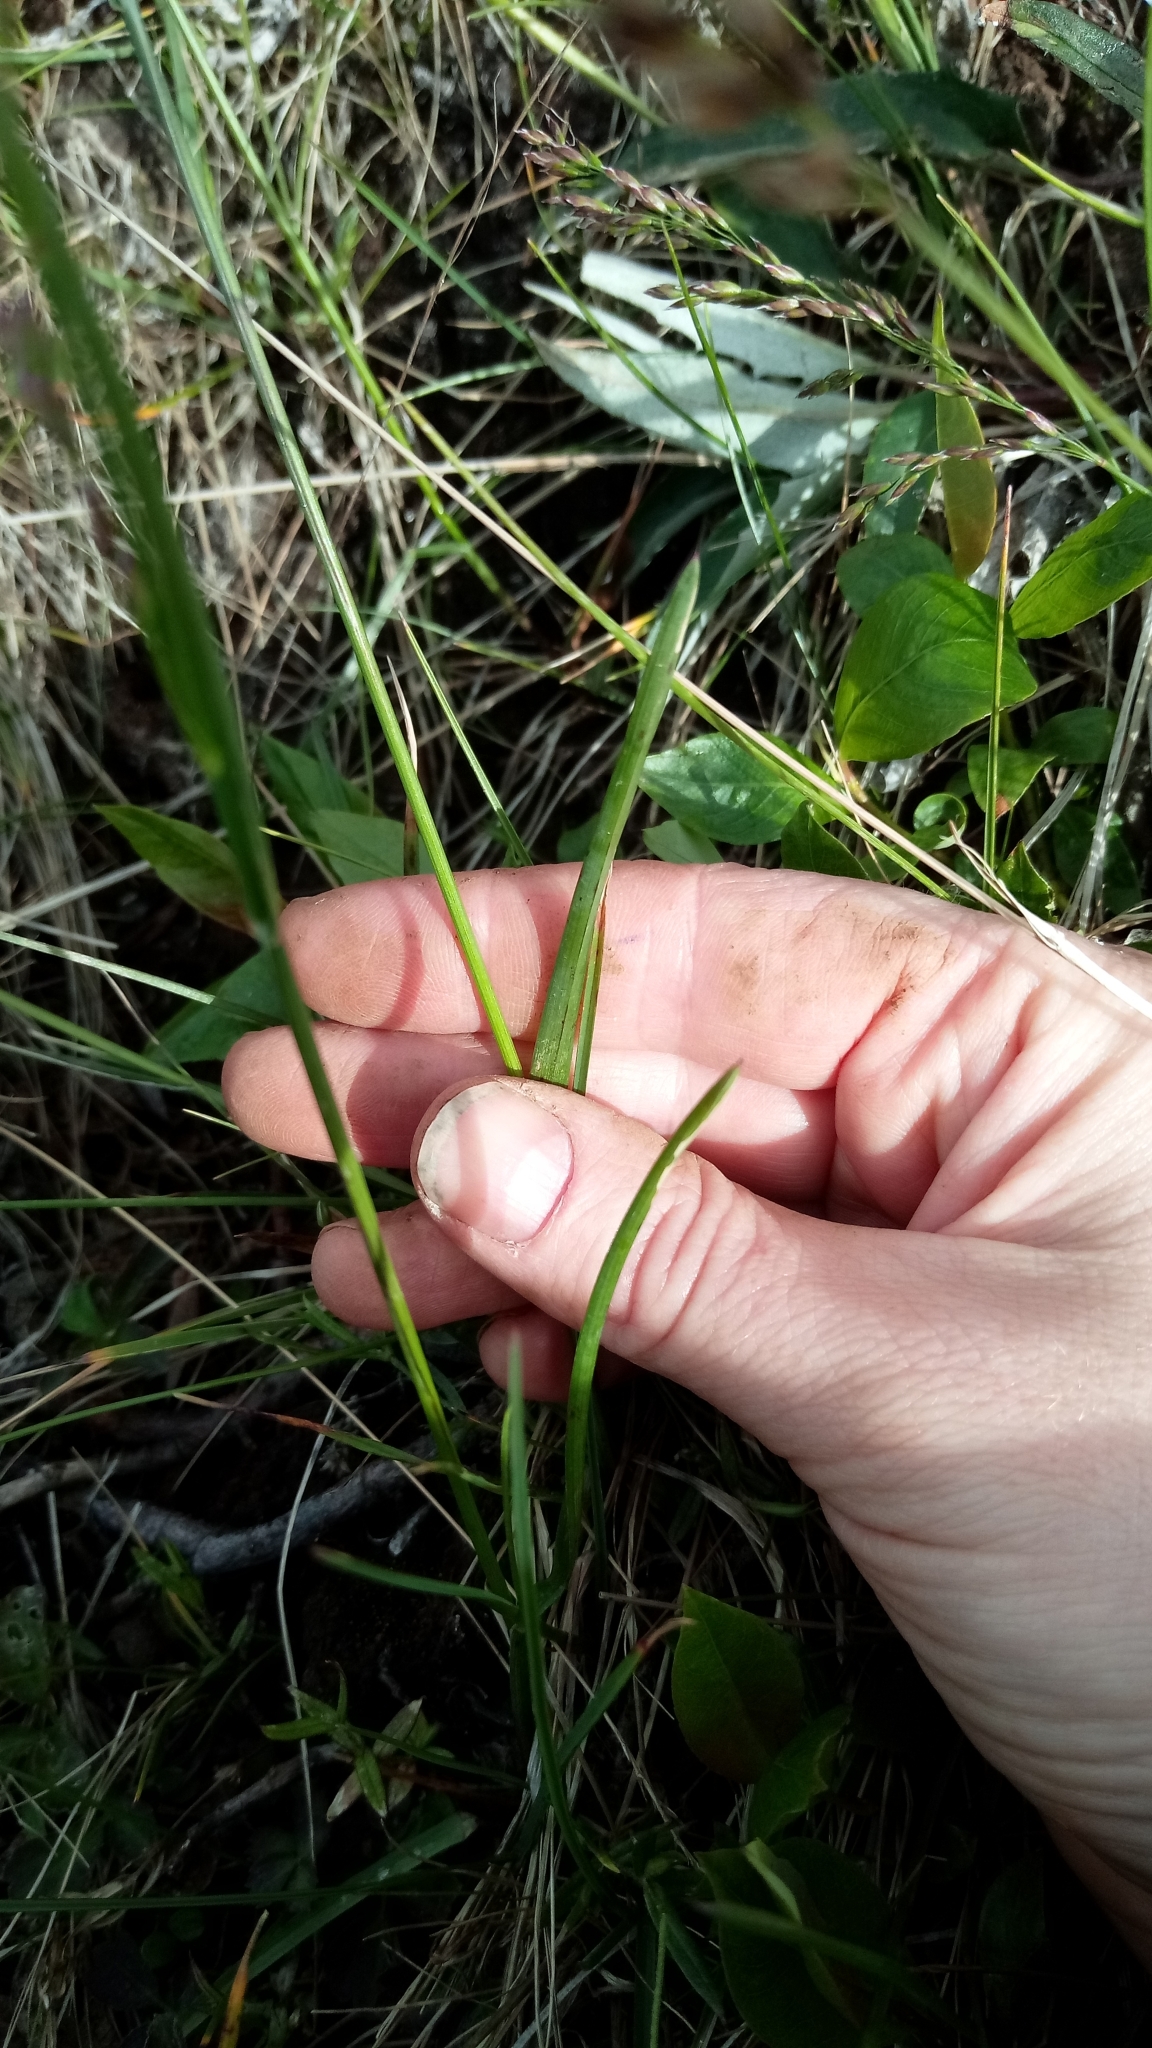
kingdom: Plantae
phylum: Tracheophyta
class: Liliopsida
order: Poales
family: Poaceae
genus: Poa
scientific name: Poa alpigena
